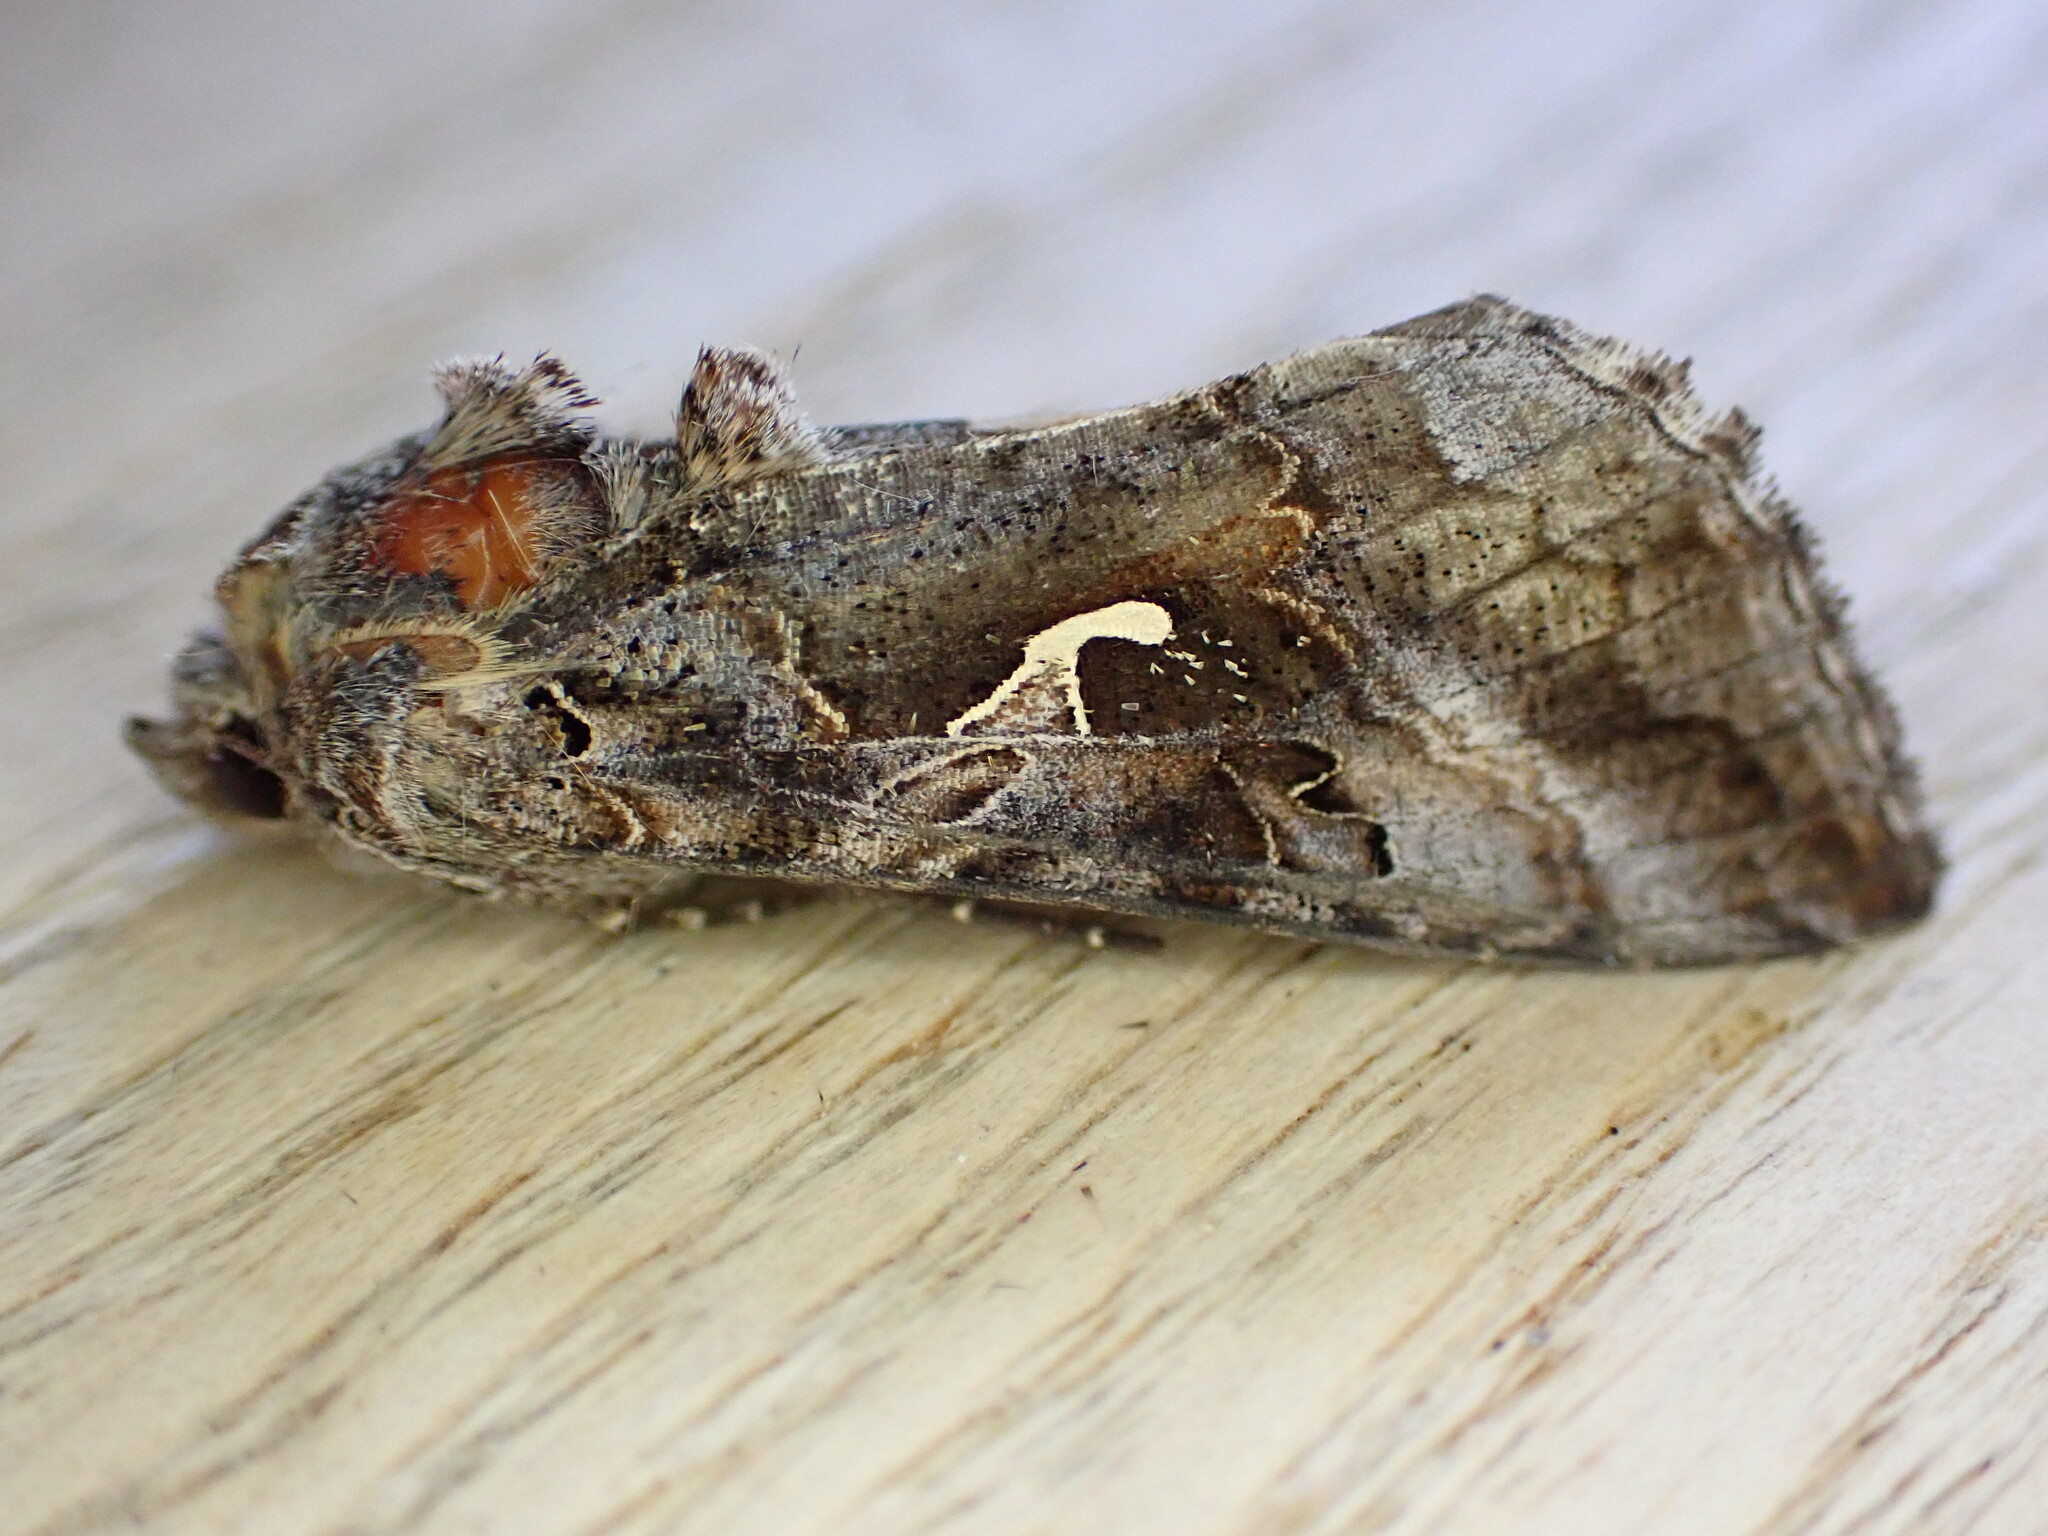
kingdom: Animalia
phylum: Arthropoda
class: Insecta
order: Lepidoptera
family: Noctuidae
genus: Autographa
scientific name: Autographa gamma
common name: Silver y
